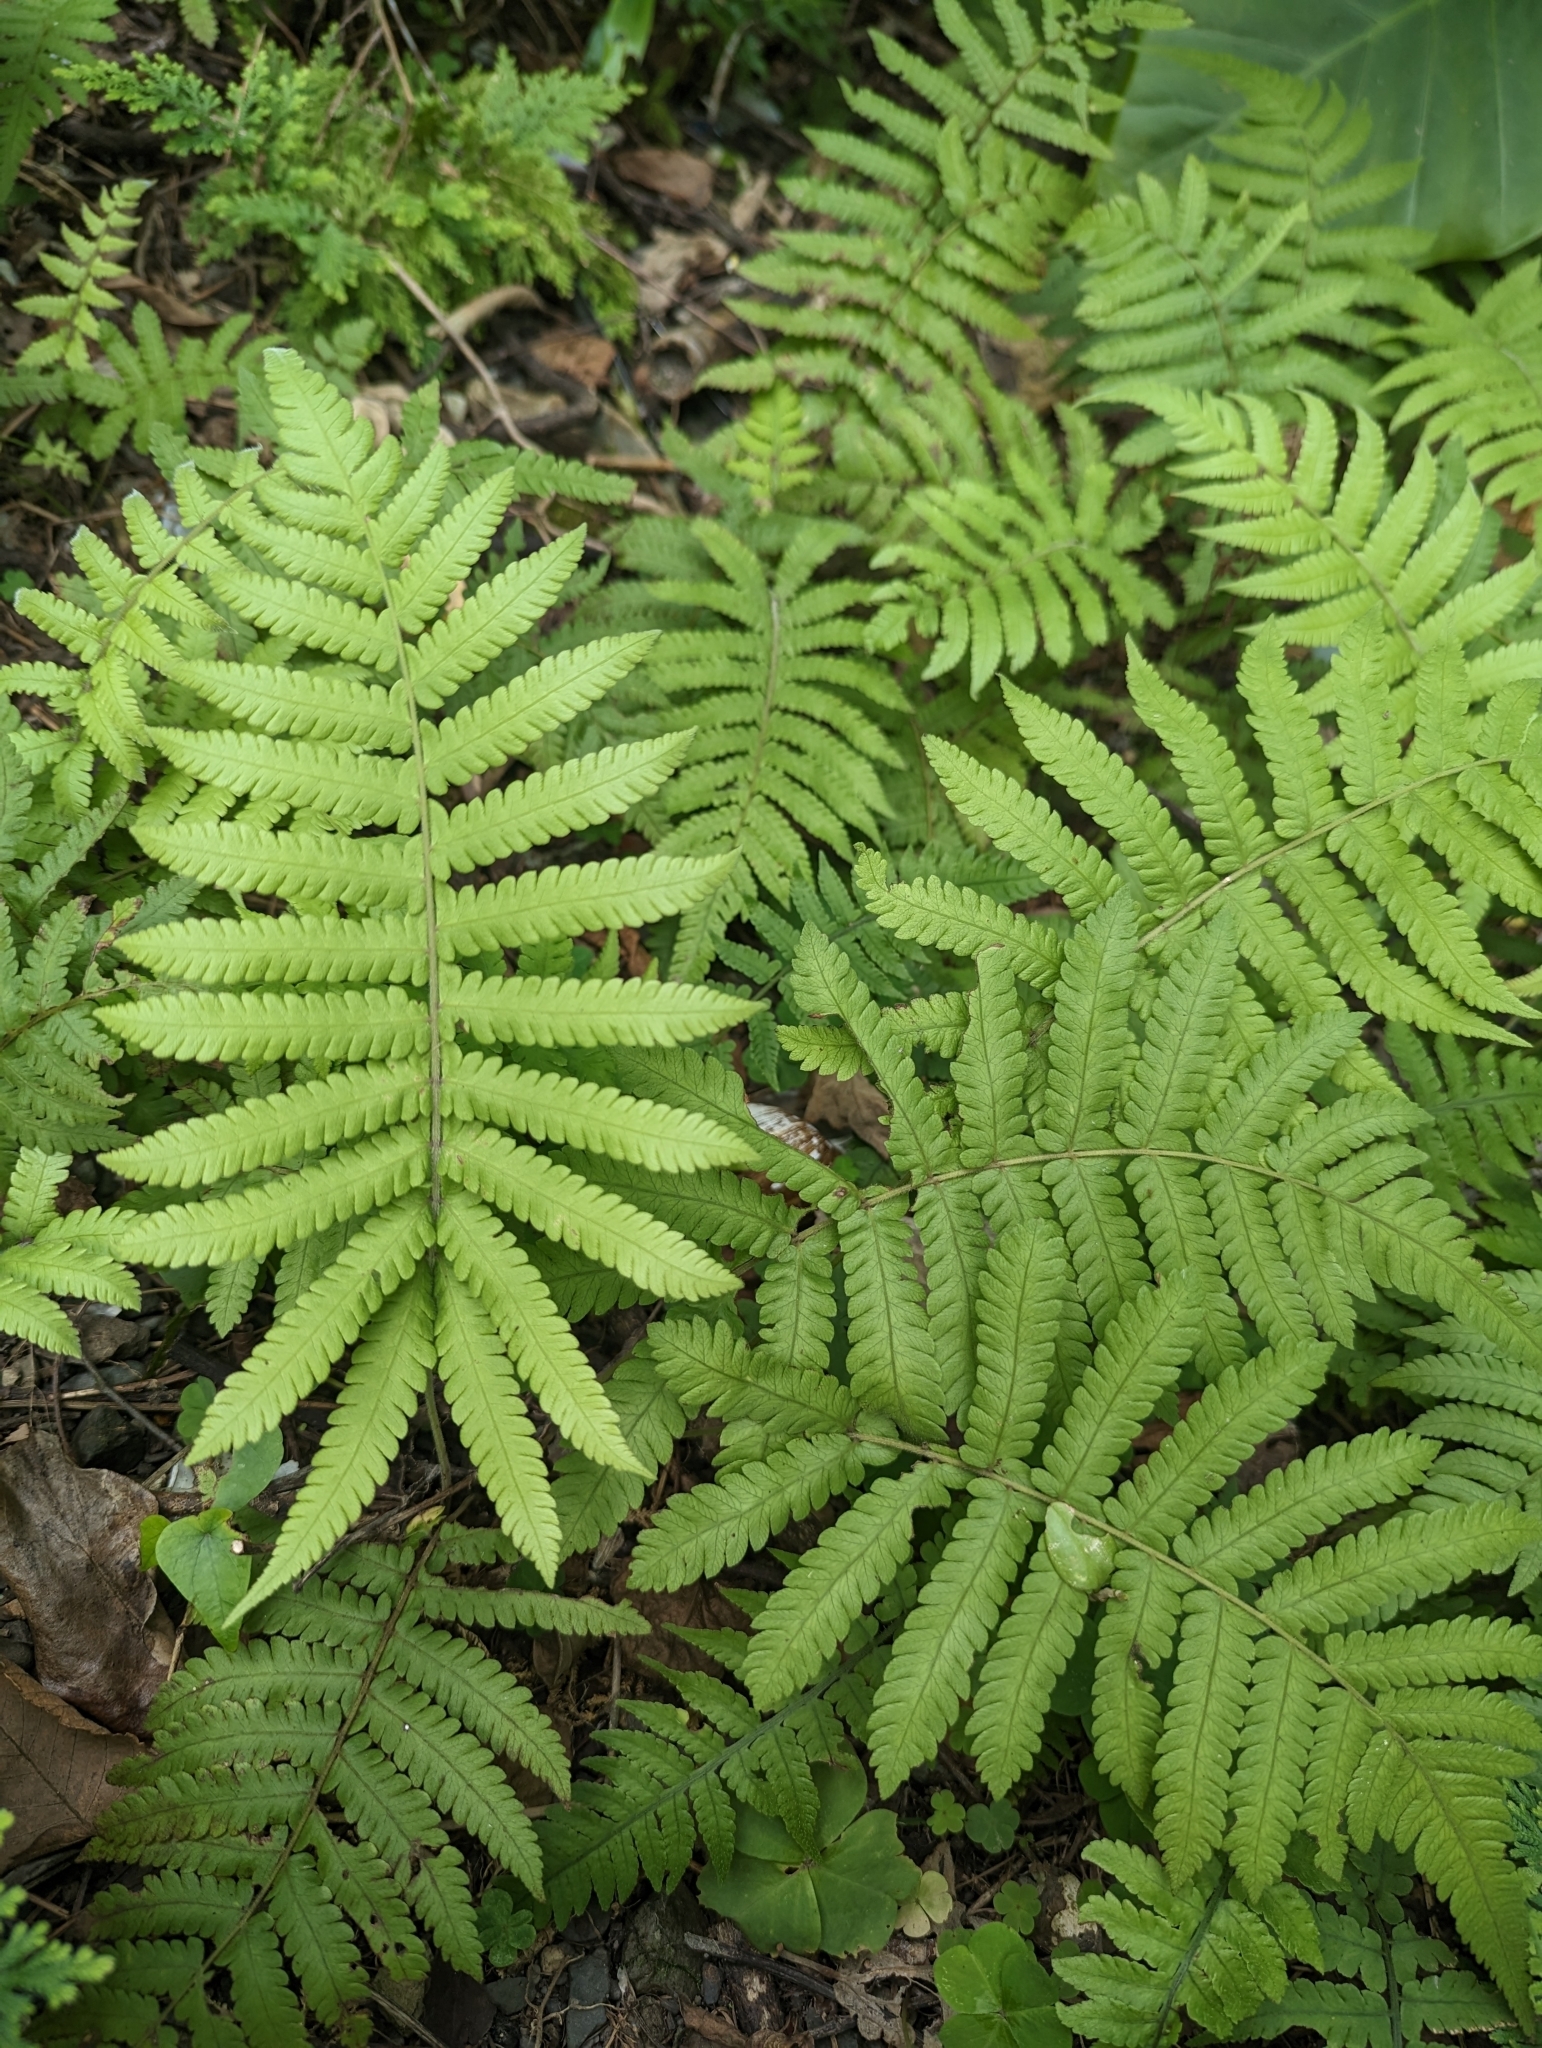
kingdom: Plantae
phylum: Tracheophyta
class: Polypodiopsida
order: Polypodiales
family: Thelypteridaceae
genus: Christella
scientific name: Christella parasitica
